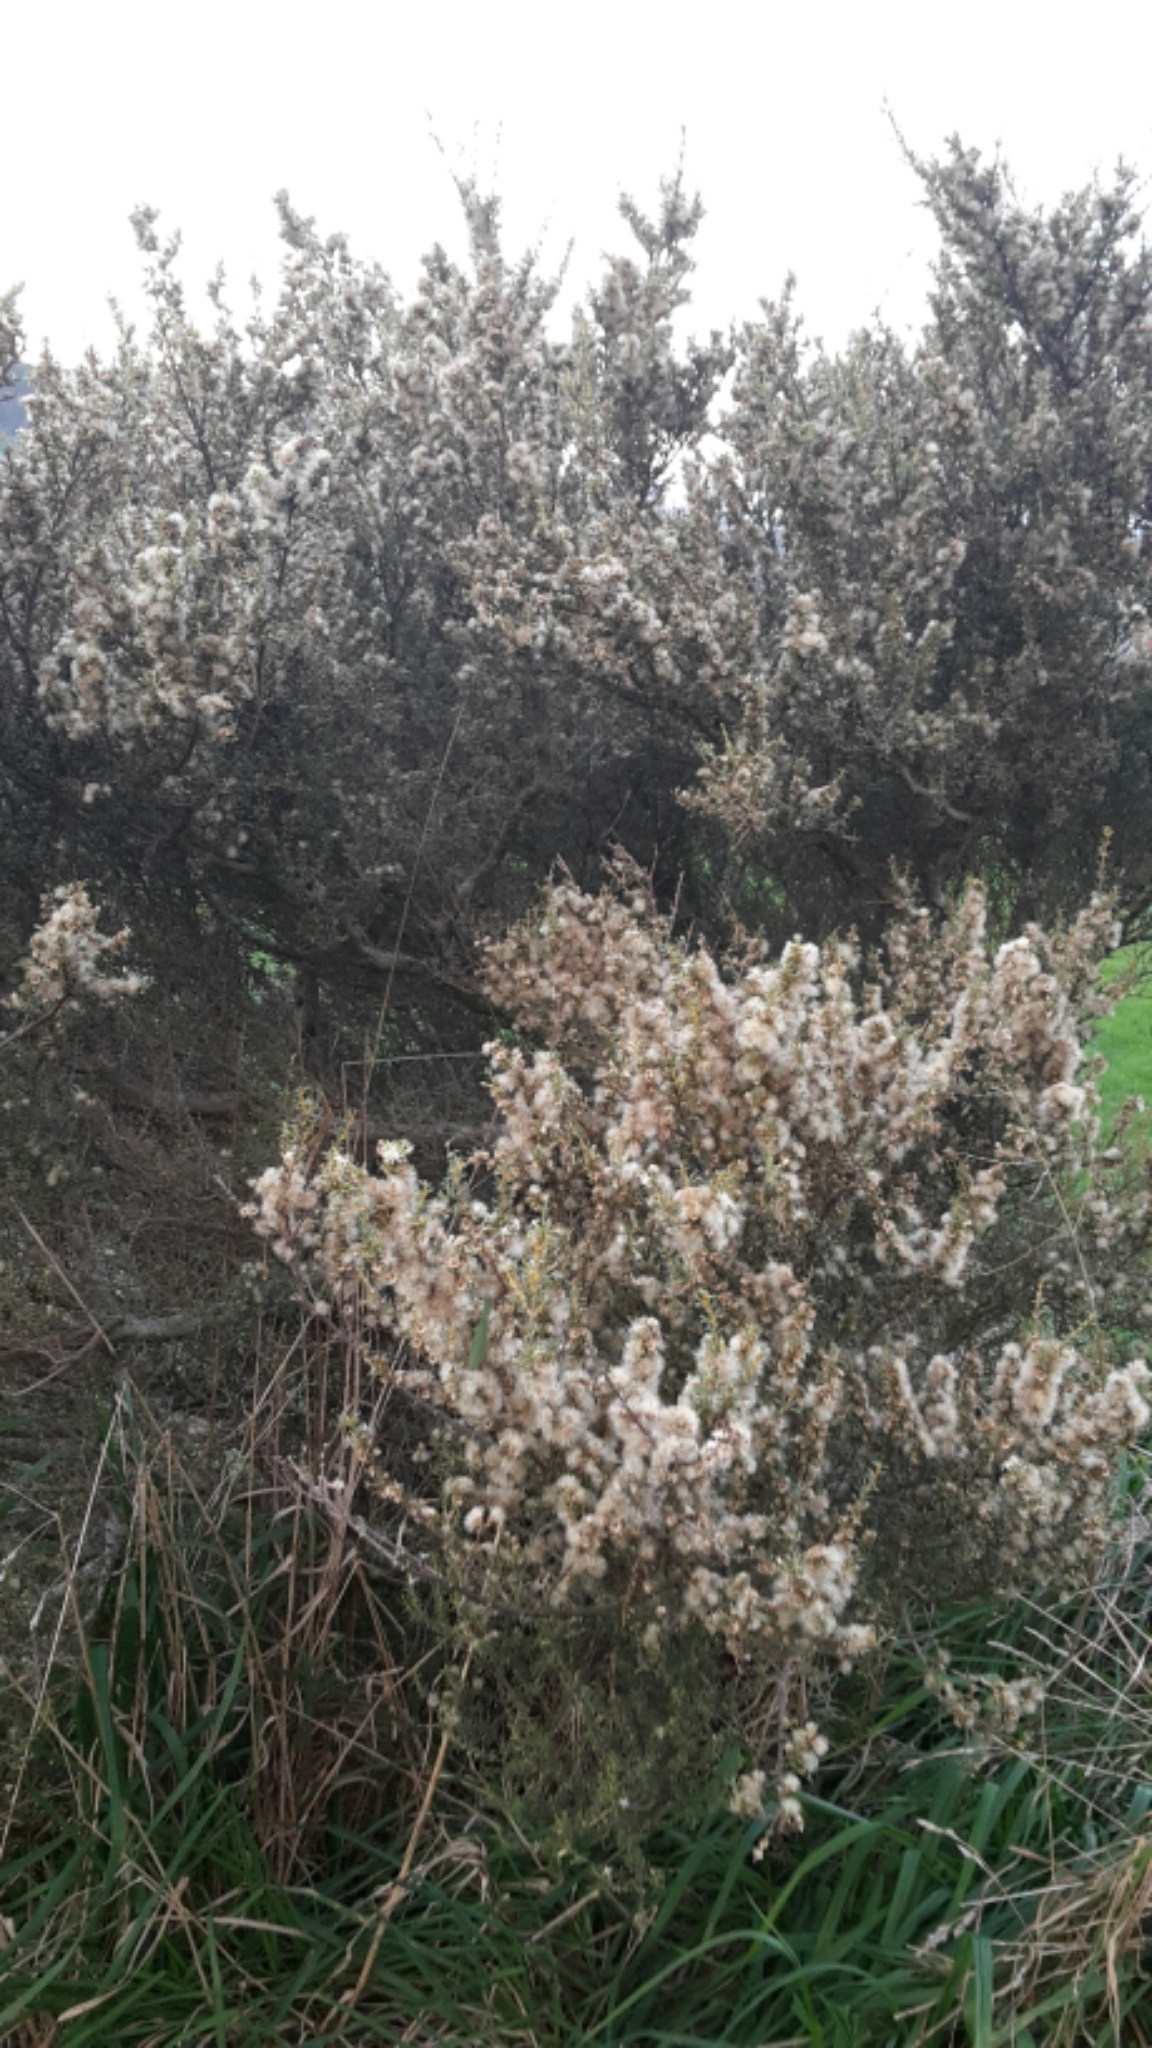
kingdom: Plantae
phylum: Tracheophyta
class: Magnoliopsida
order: Asterales
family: Asteraceae
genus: Olearia
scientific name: Olearia solandri
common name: Coastal daisybush
